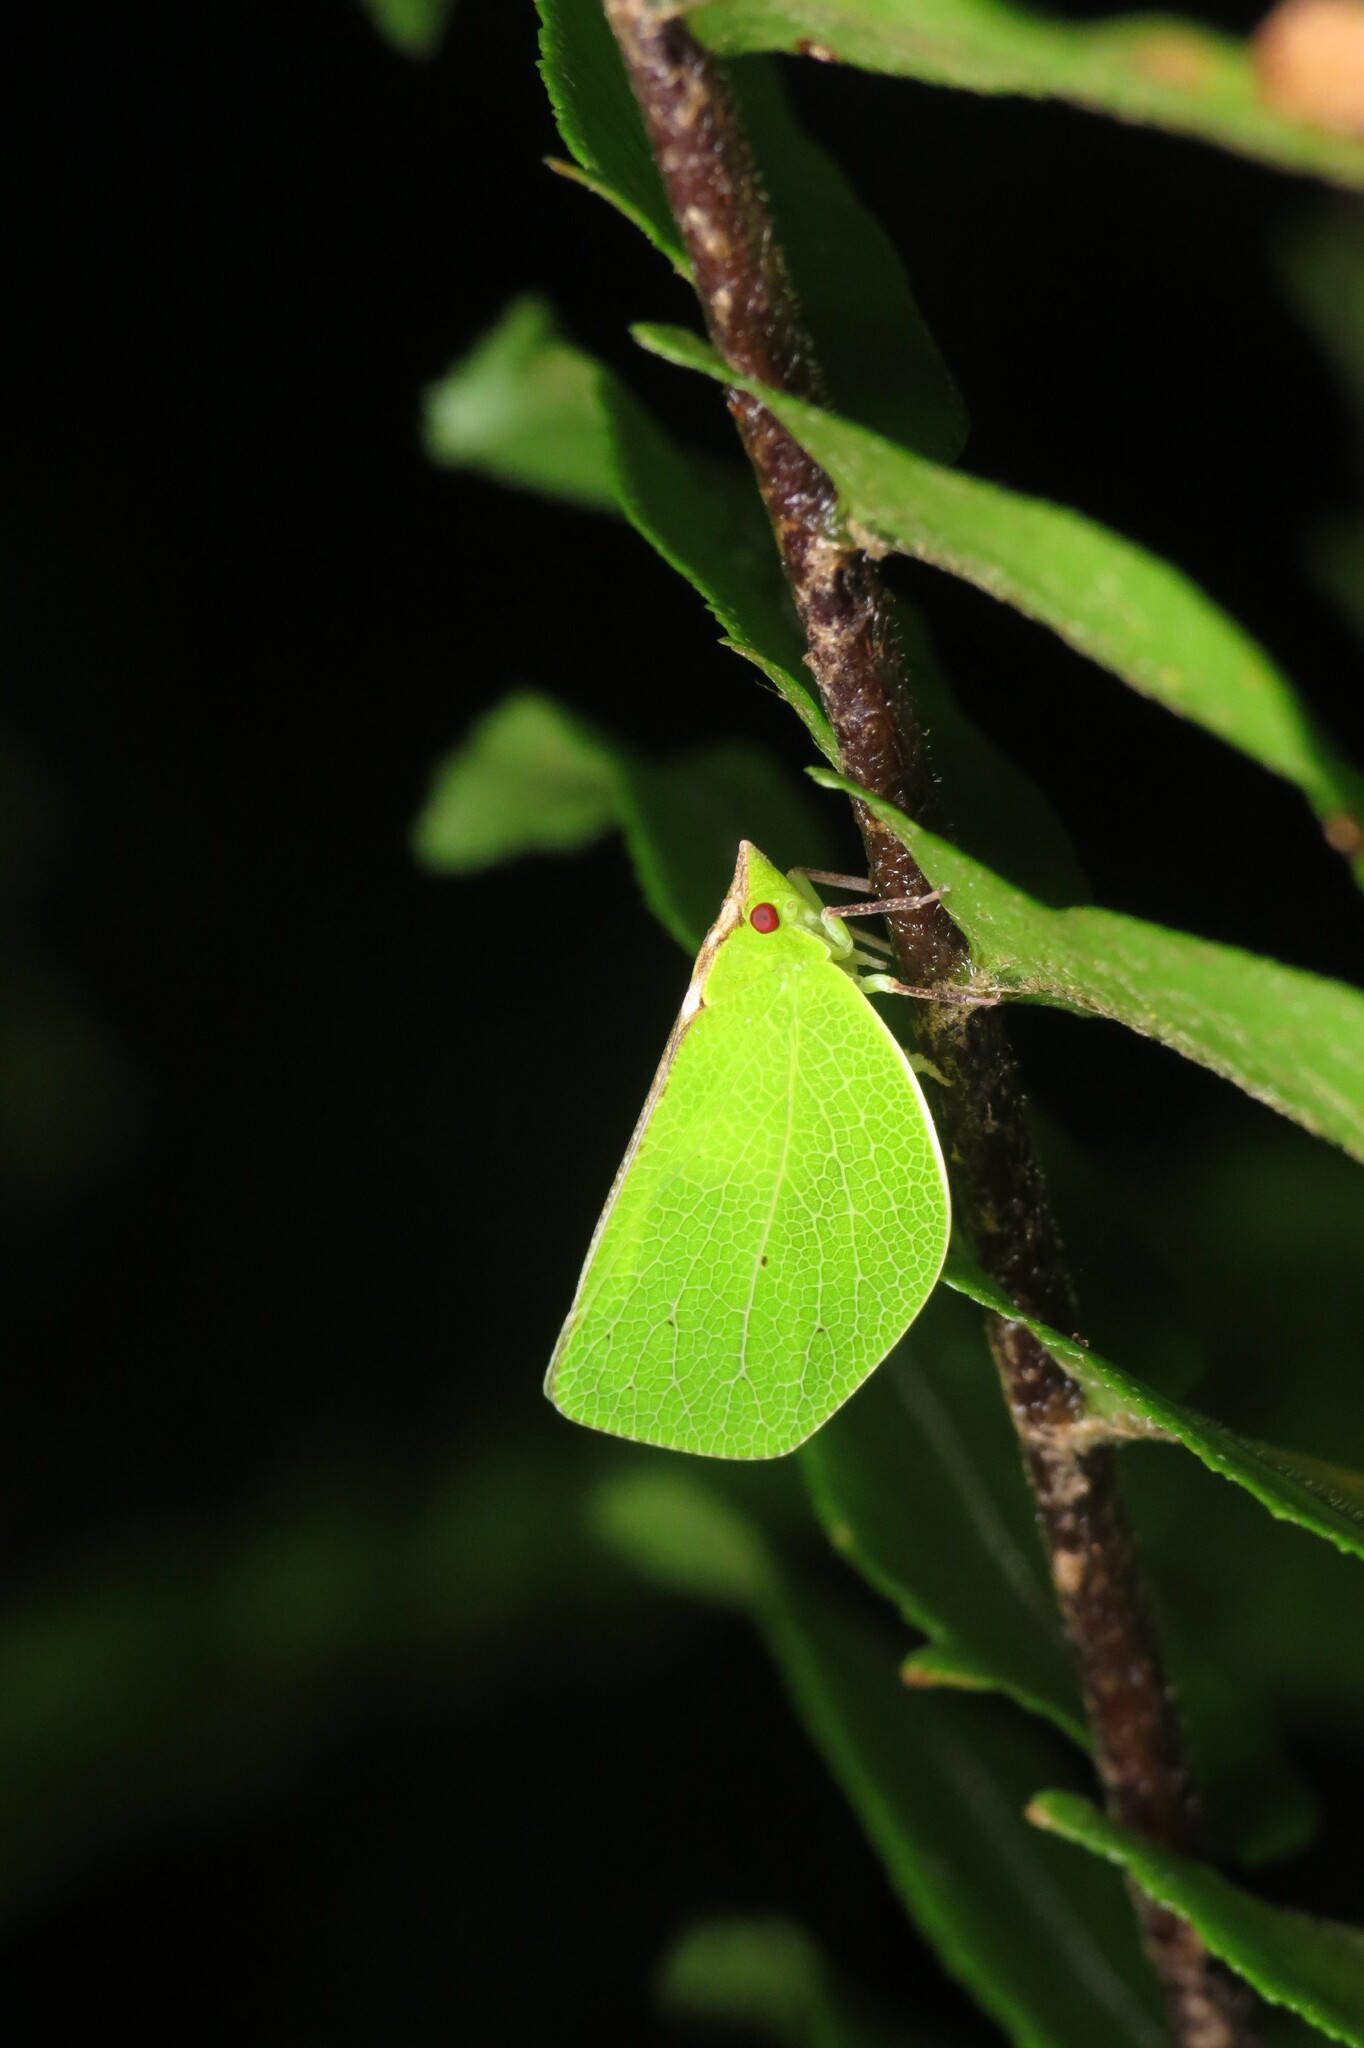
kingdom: Animalia
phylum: Arthropoda
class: Insecta
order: Hemiptera
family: Acanaloniidae
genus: Chlorochara
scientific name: Chlorochara vivida
